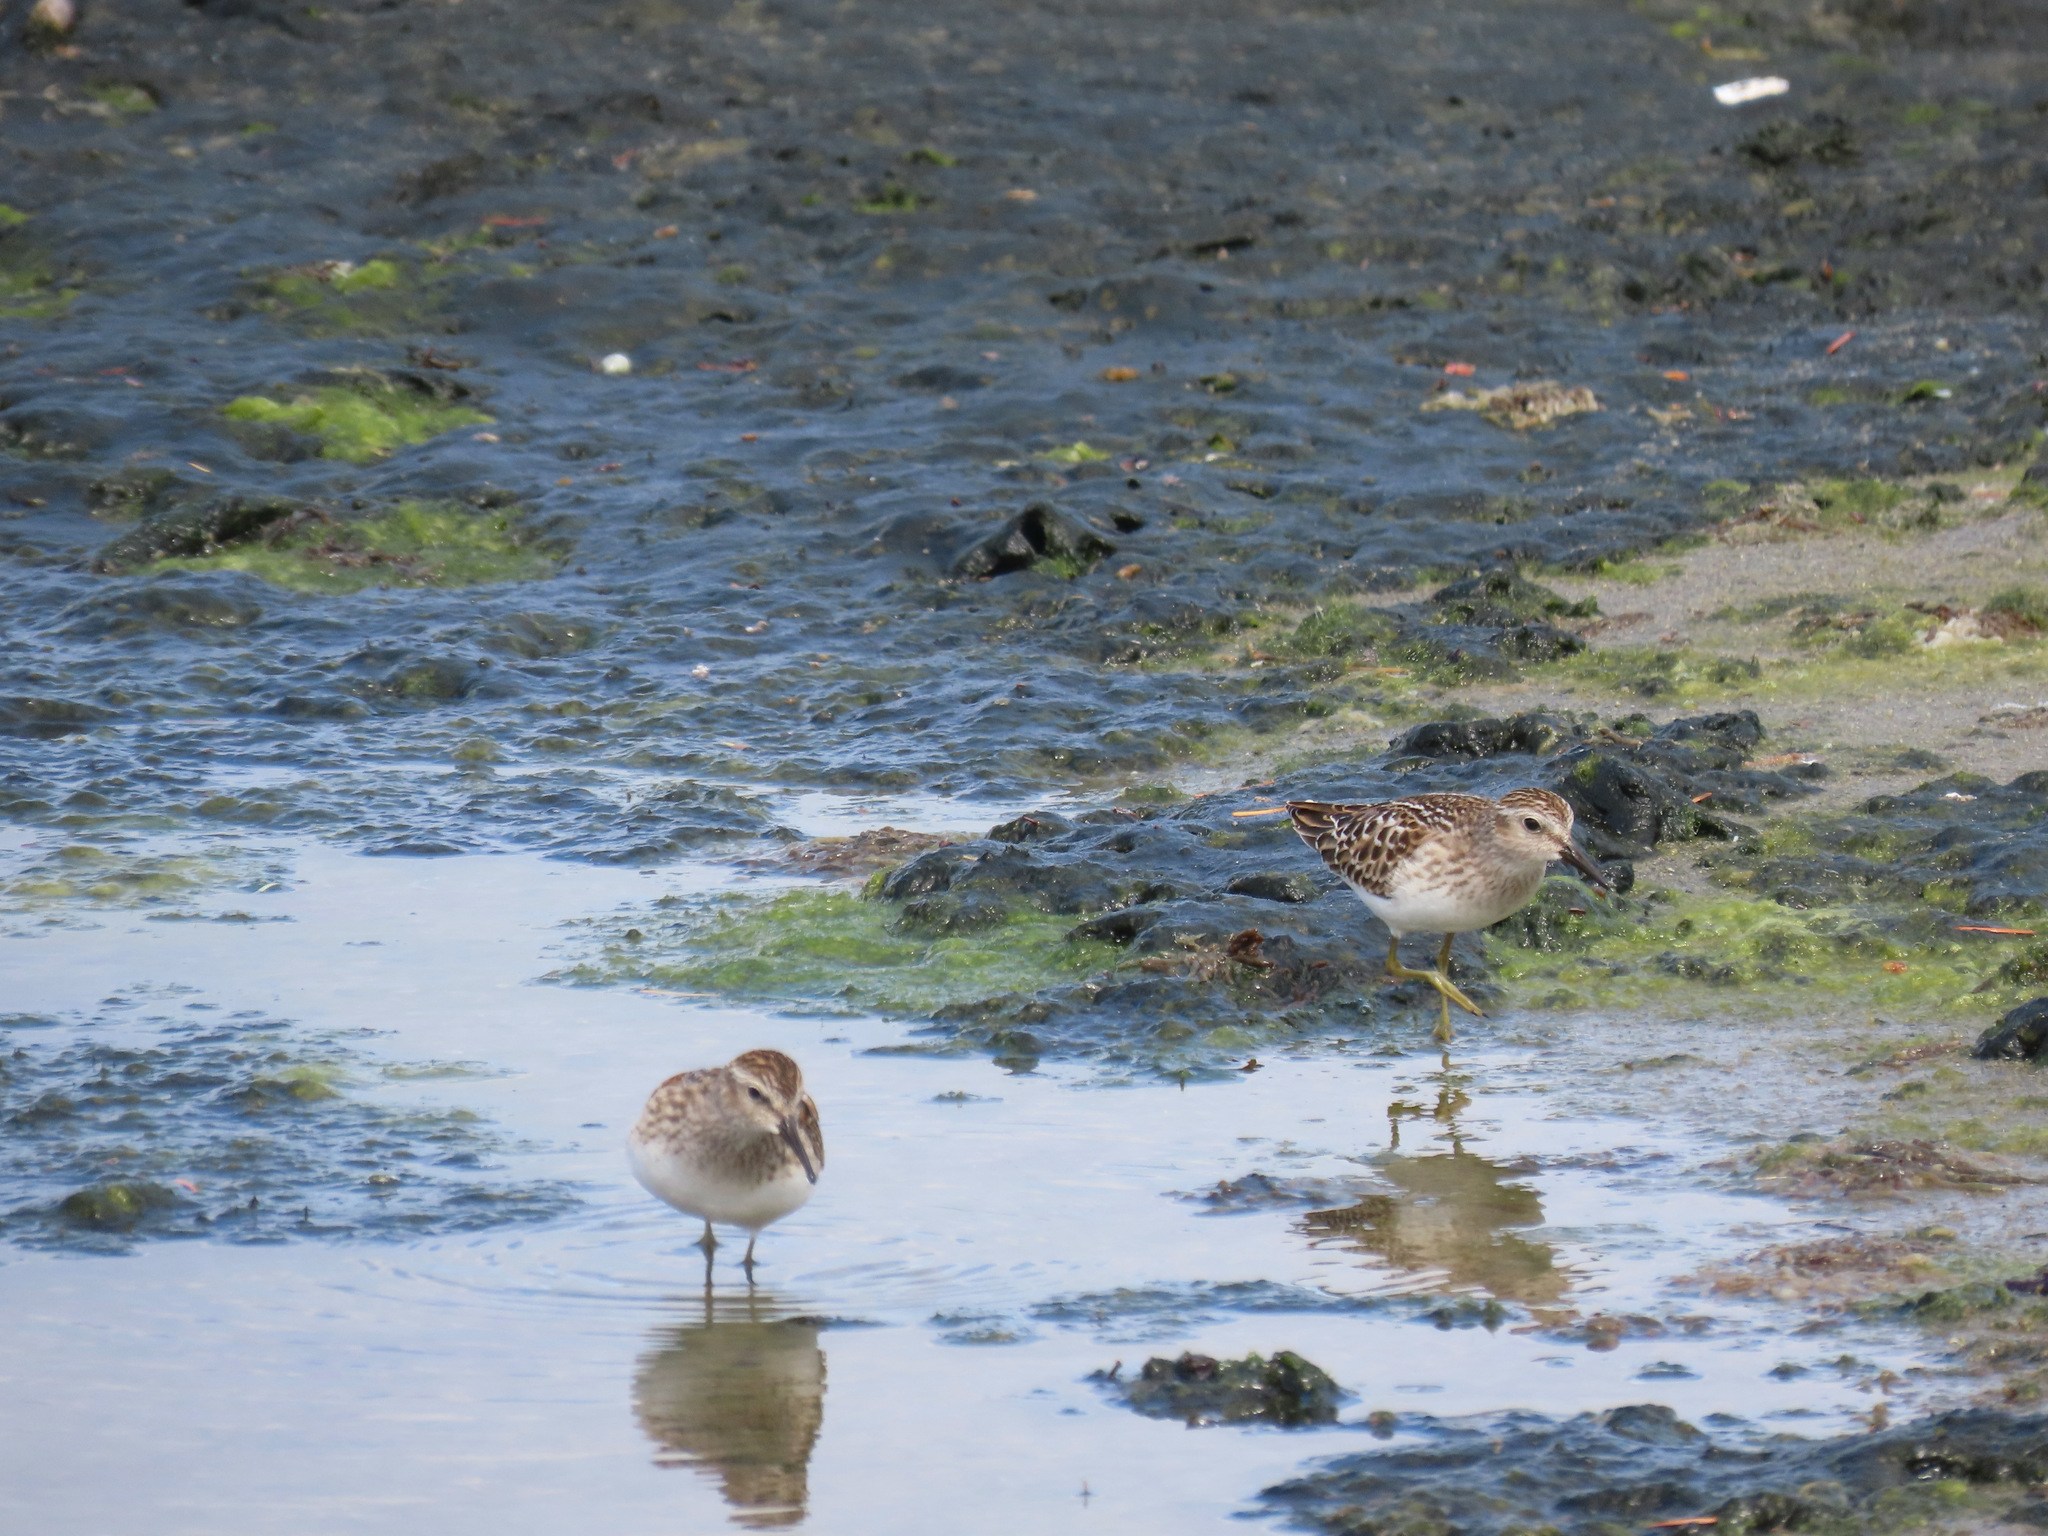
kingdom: Animalia
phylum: Chordata
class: Aves
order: Charadriiformes
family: Scolopacidae
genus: Calidris
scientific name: Calidris minutilla
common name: Least sandpiper
